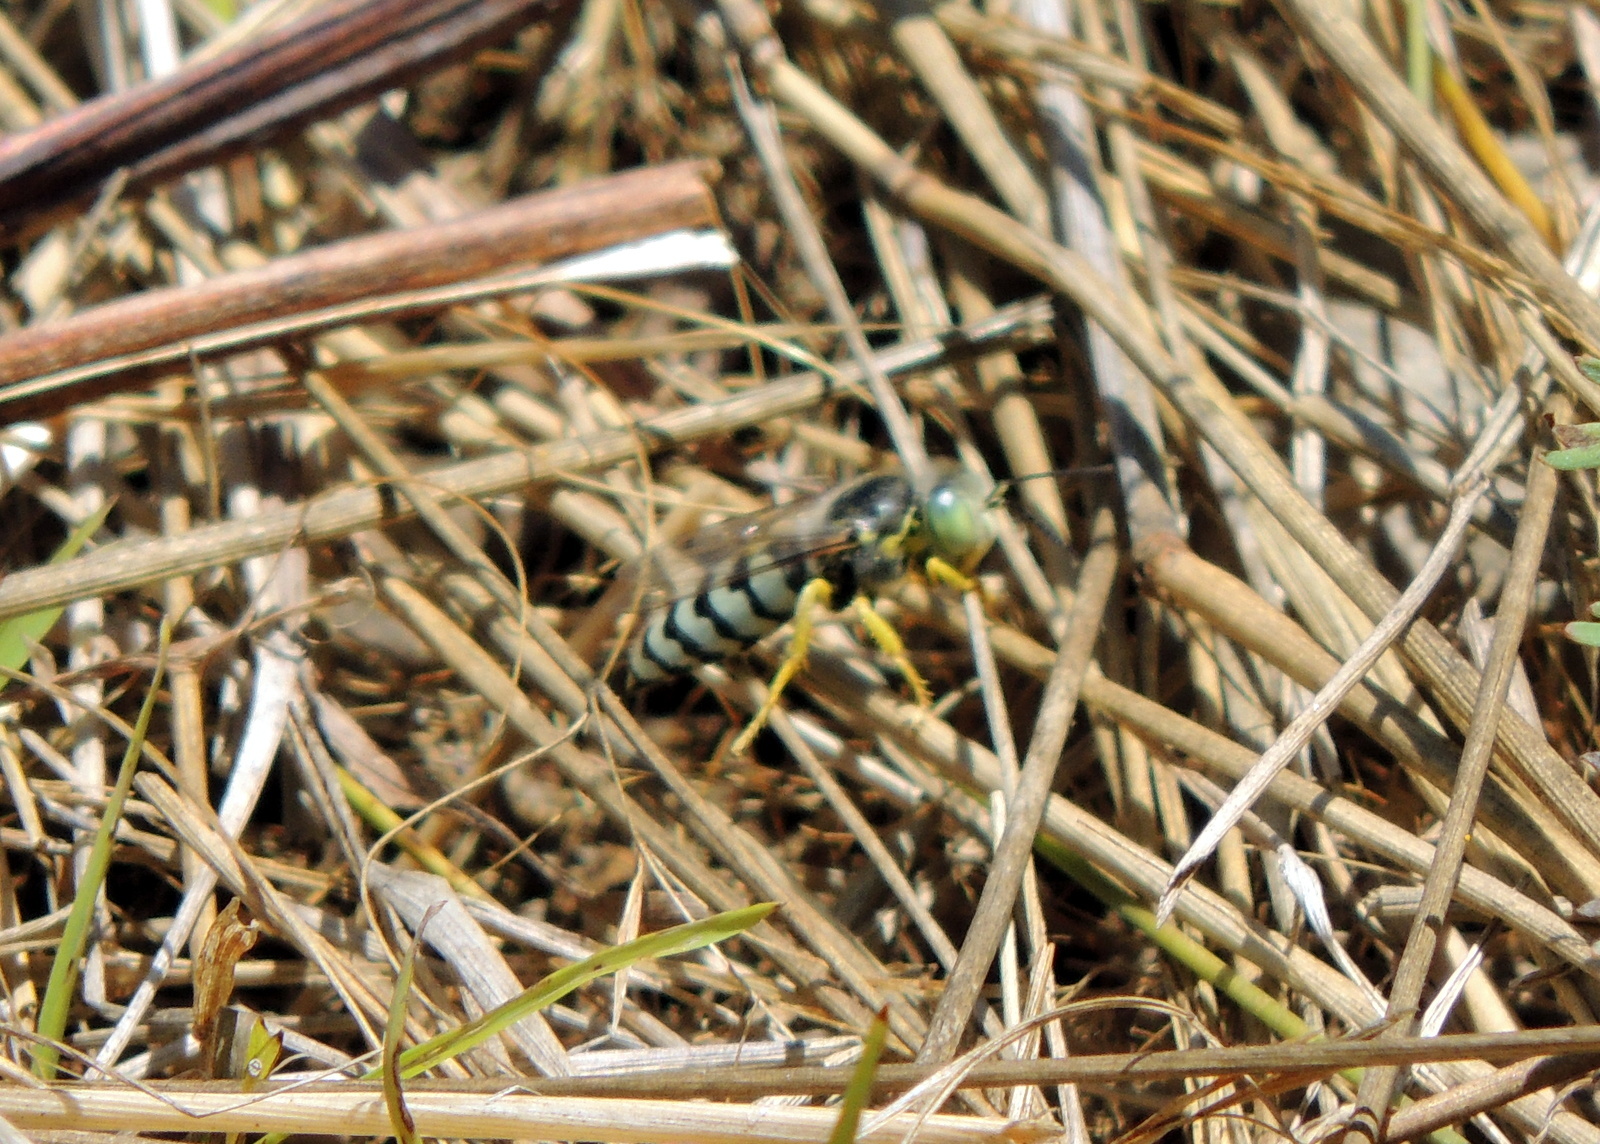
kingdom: Animalia
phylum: Arthropoda
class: Insecta
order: Hymenoptera
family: Crabronidae
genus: Bembix
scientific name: Bembix americana
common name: American sand wasp
